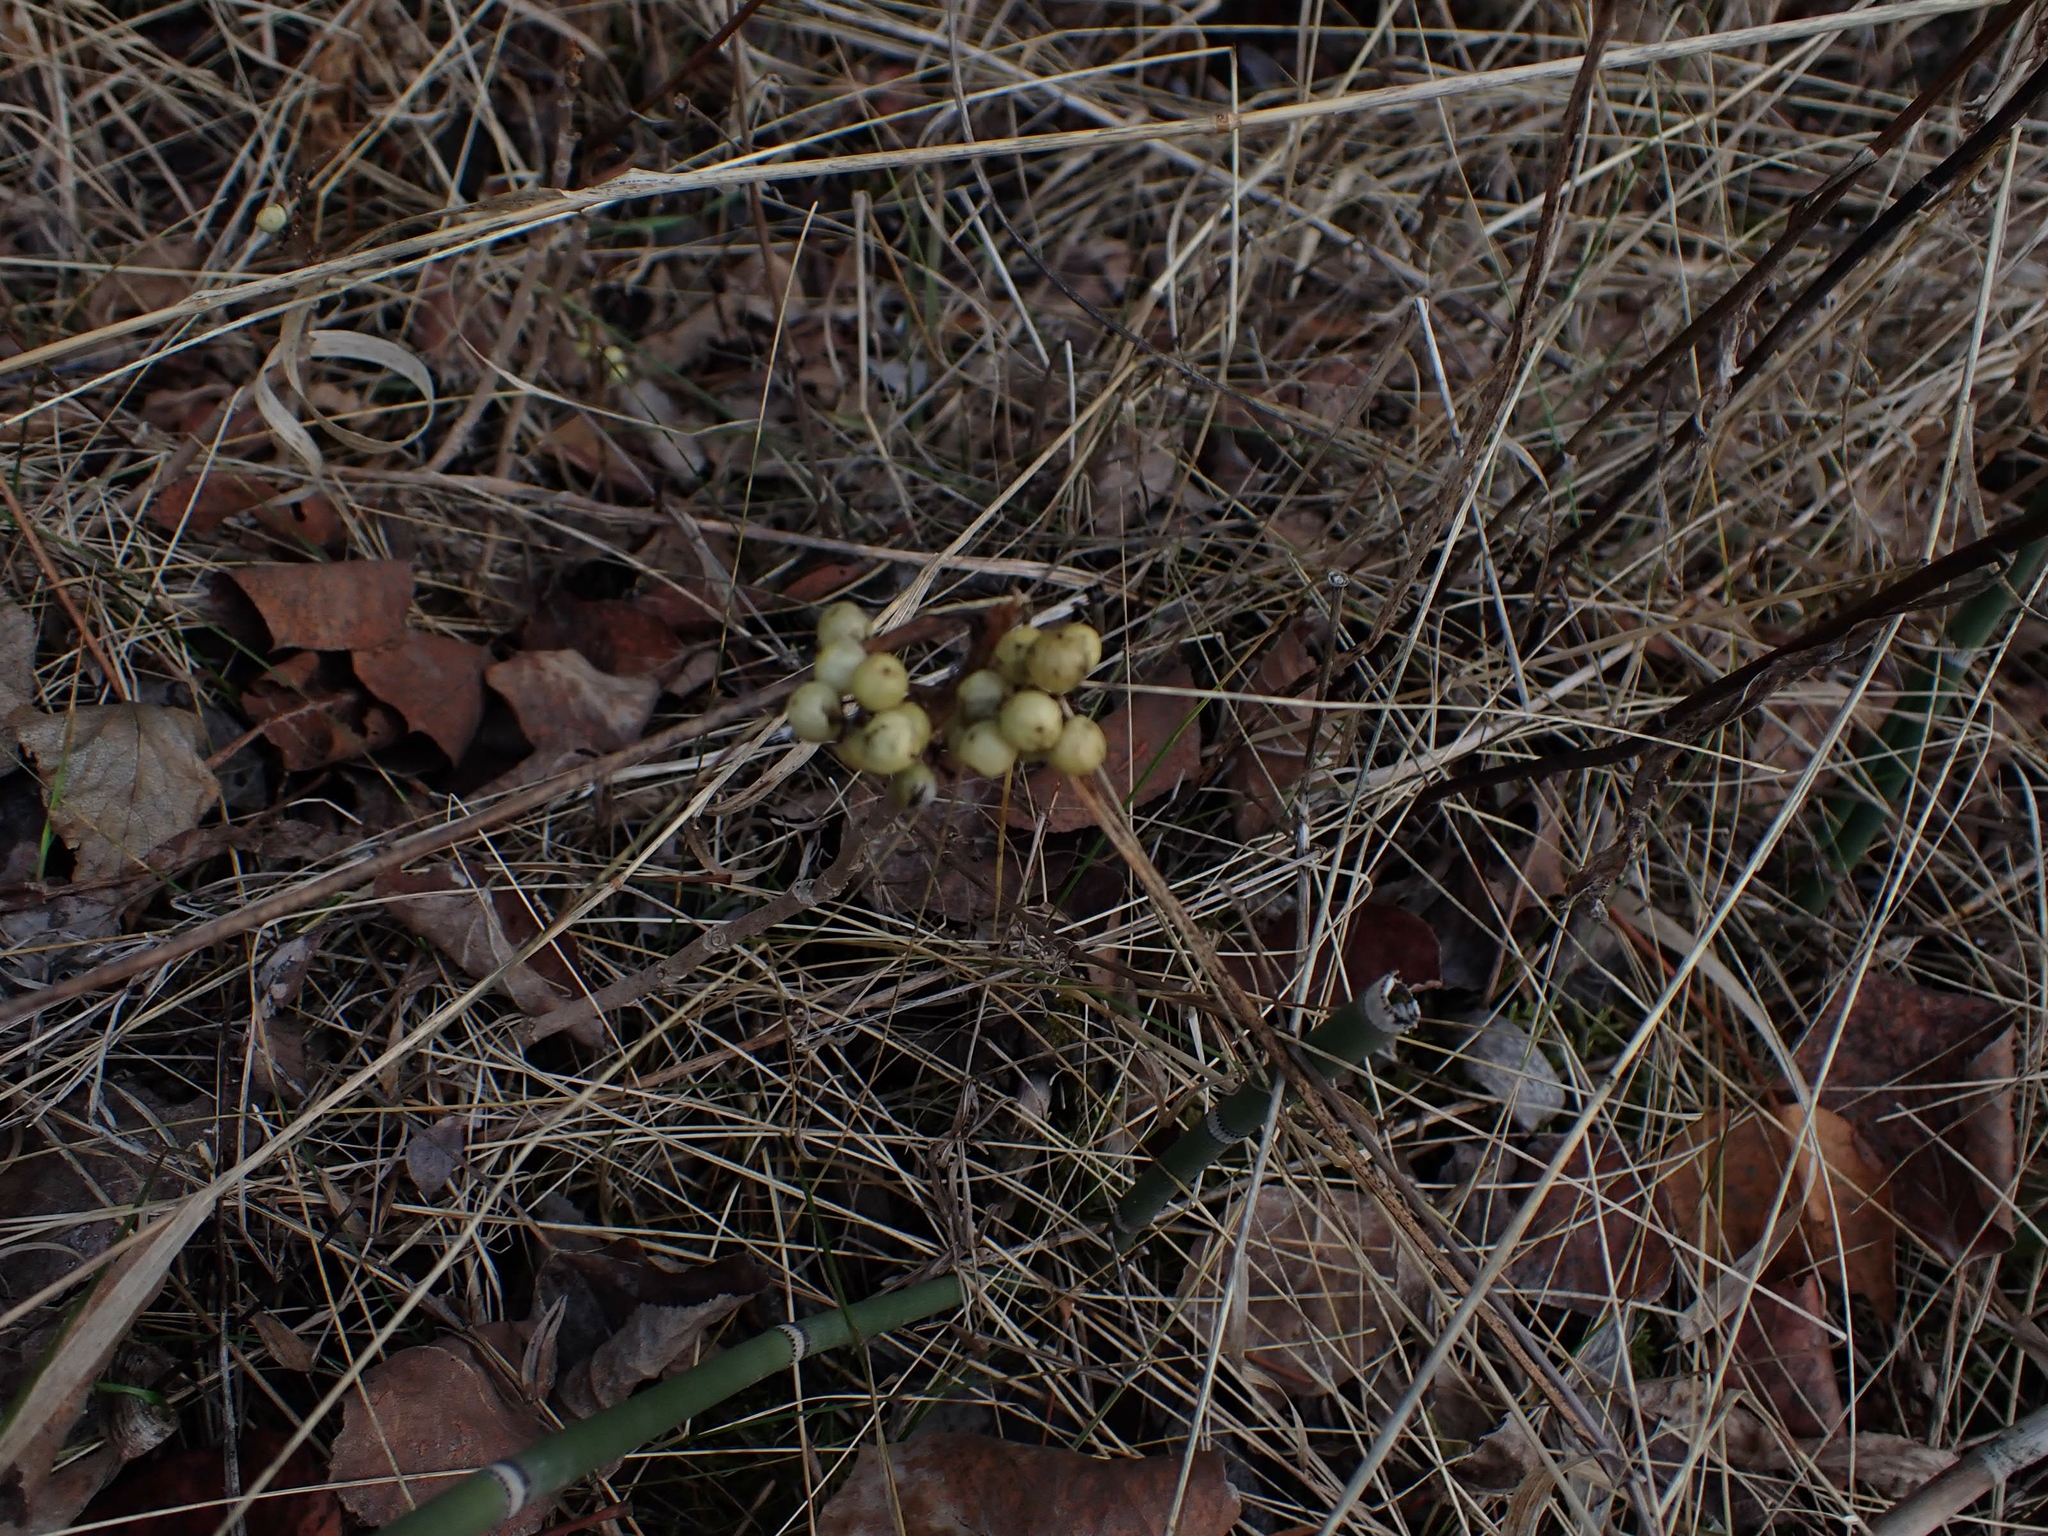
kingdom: Plantae
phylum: Tracheophyta
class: Magnoliopsida
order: Sapindales
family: Anacardiaceae
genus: Toxicodendron
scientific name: Toxicodendron rydbergii
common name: Rydberg's poison-ivy
